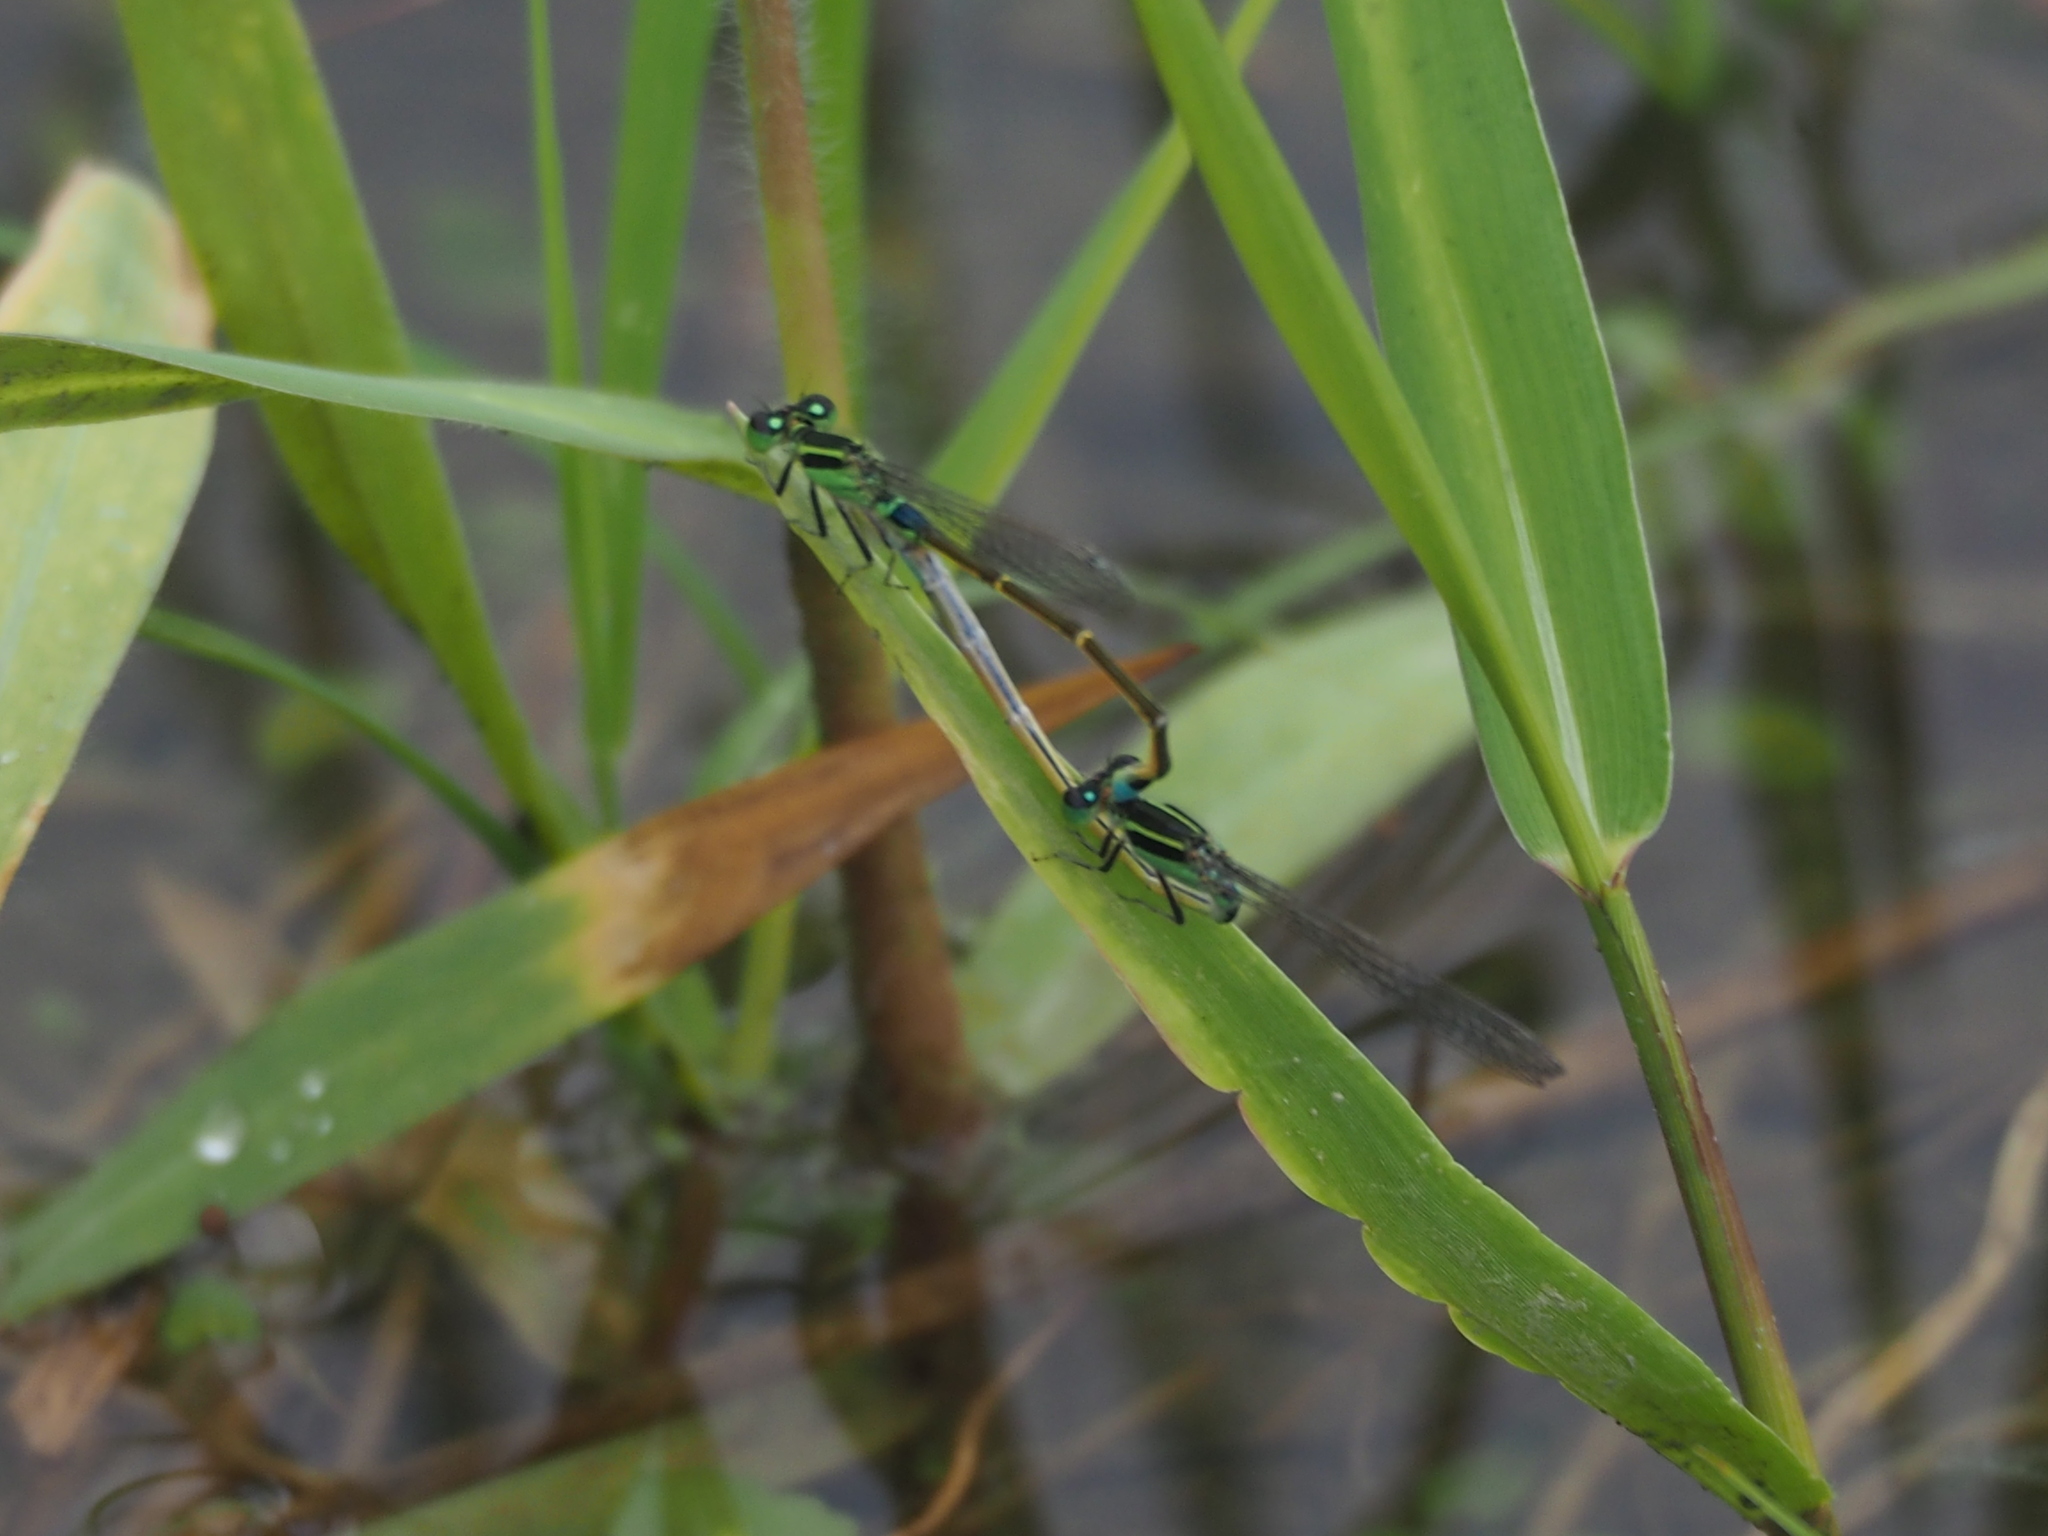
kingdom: Animalia
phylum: Arthropoda
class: Insecta
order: Odonata
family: Coenagrionidae
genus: Ischnura
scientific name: Ischnura senegalensis
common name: Tropical bluetail
